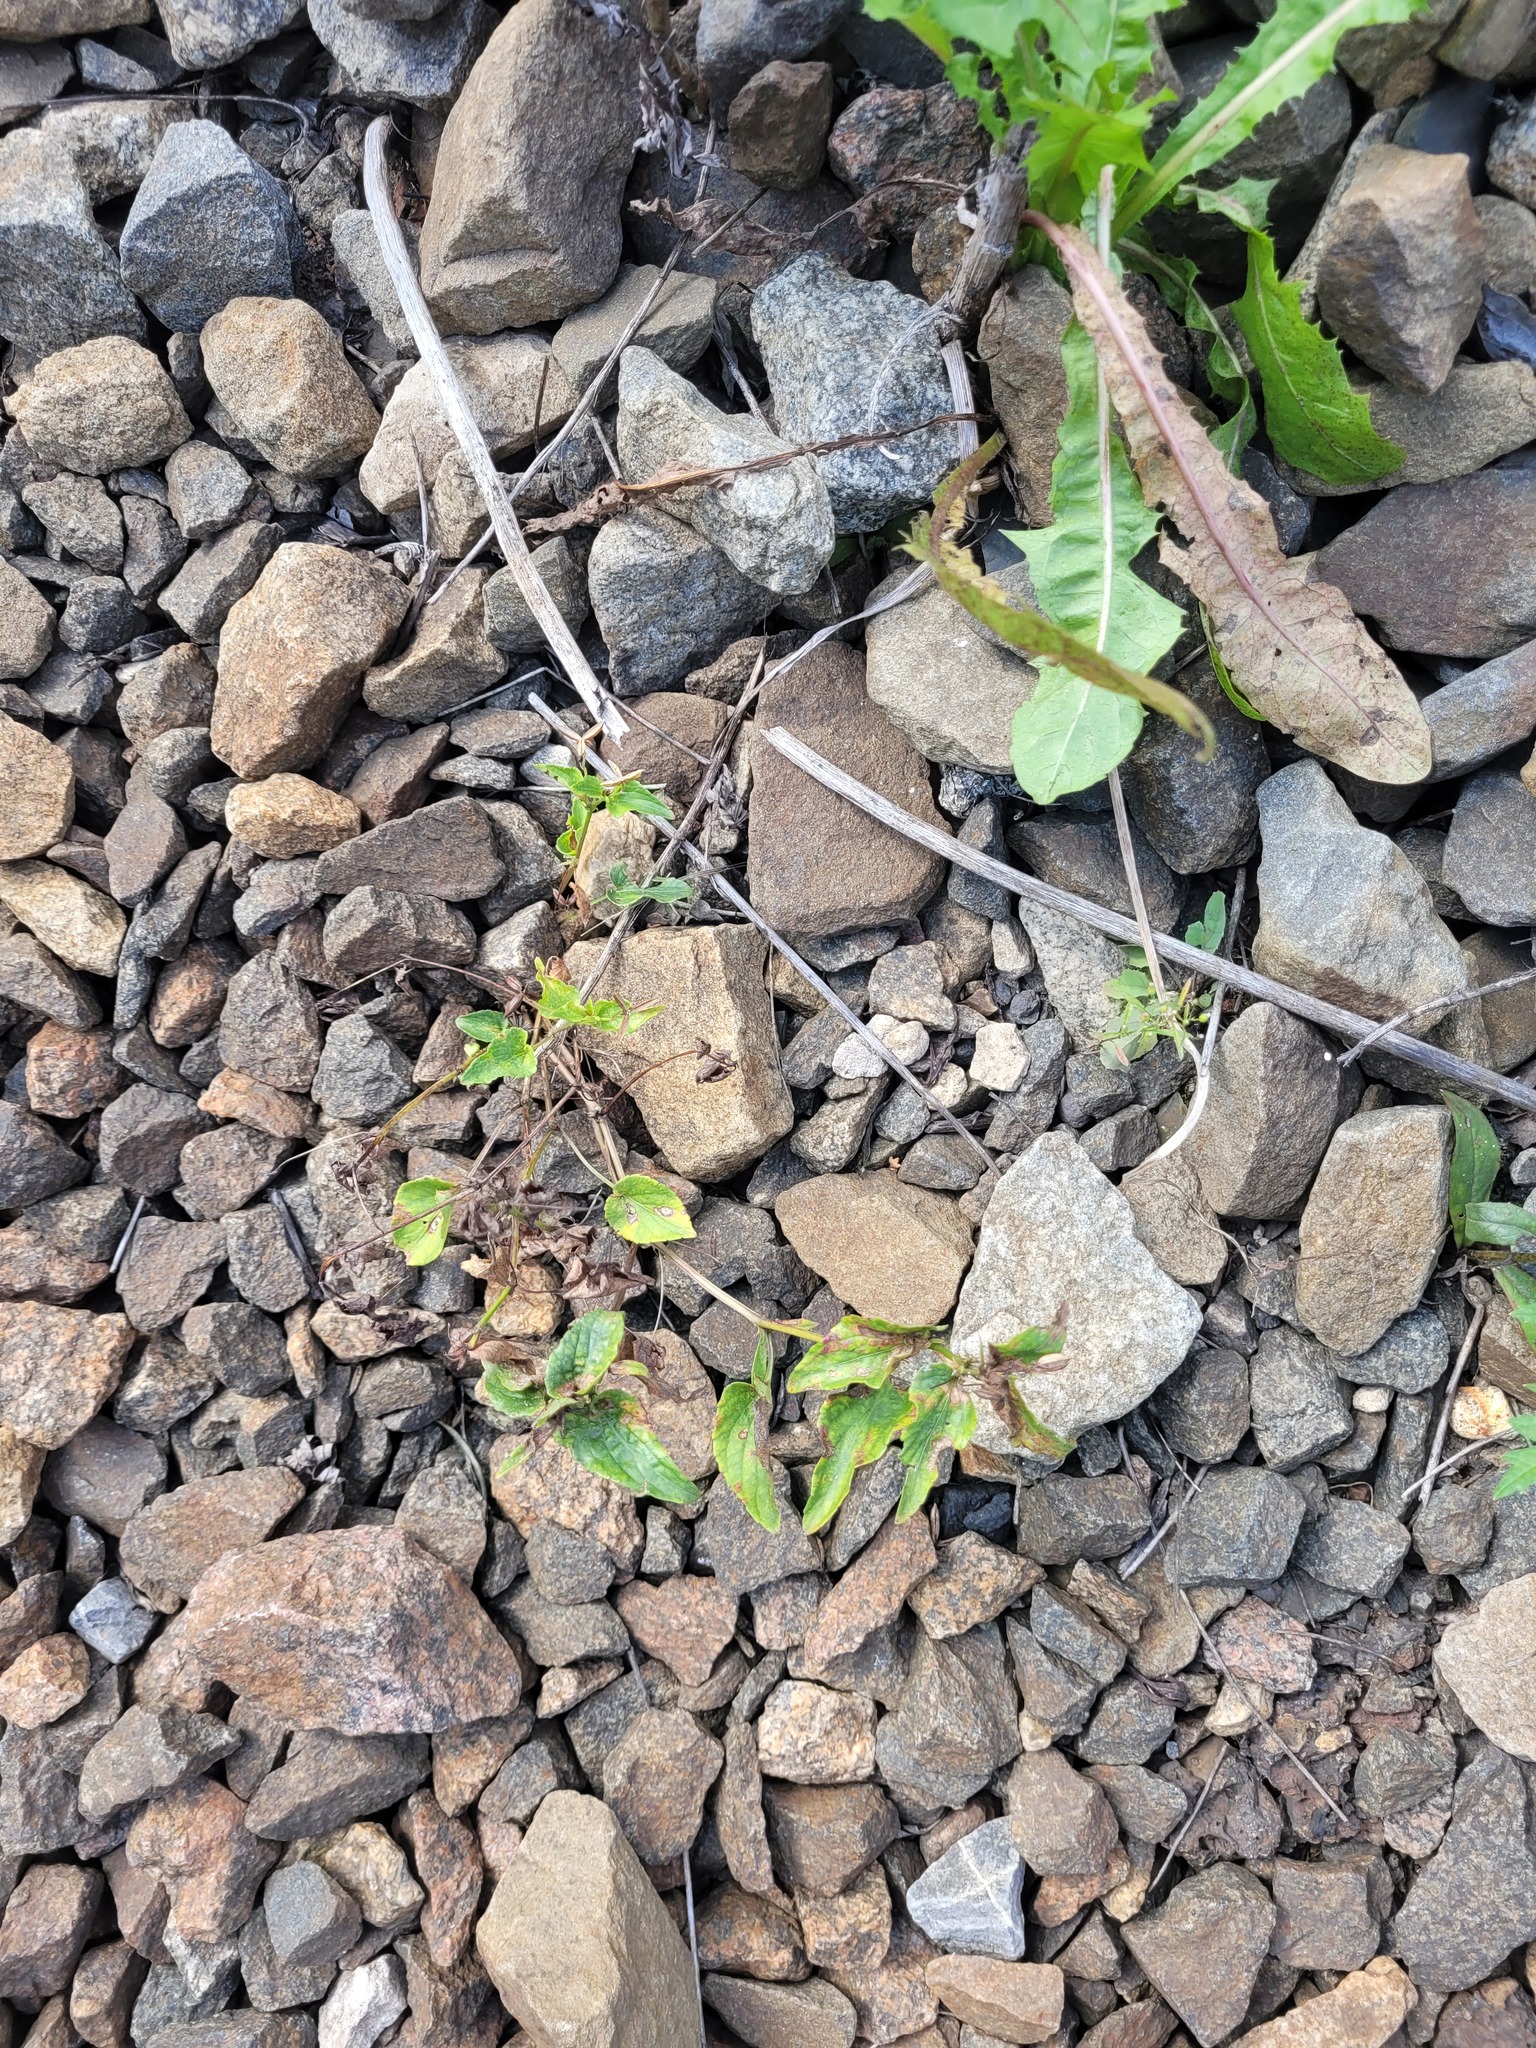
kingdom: Plantae
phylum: Tracheophyta
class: Magnoliopsida
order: Malpighiales
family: Violaceae
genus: Viola
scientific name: Viola
